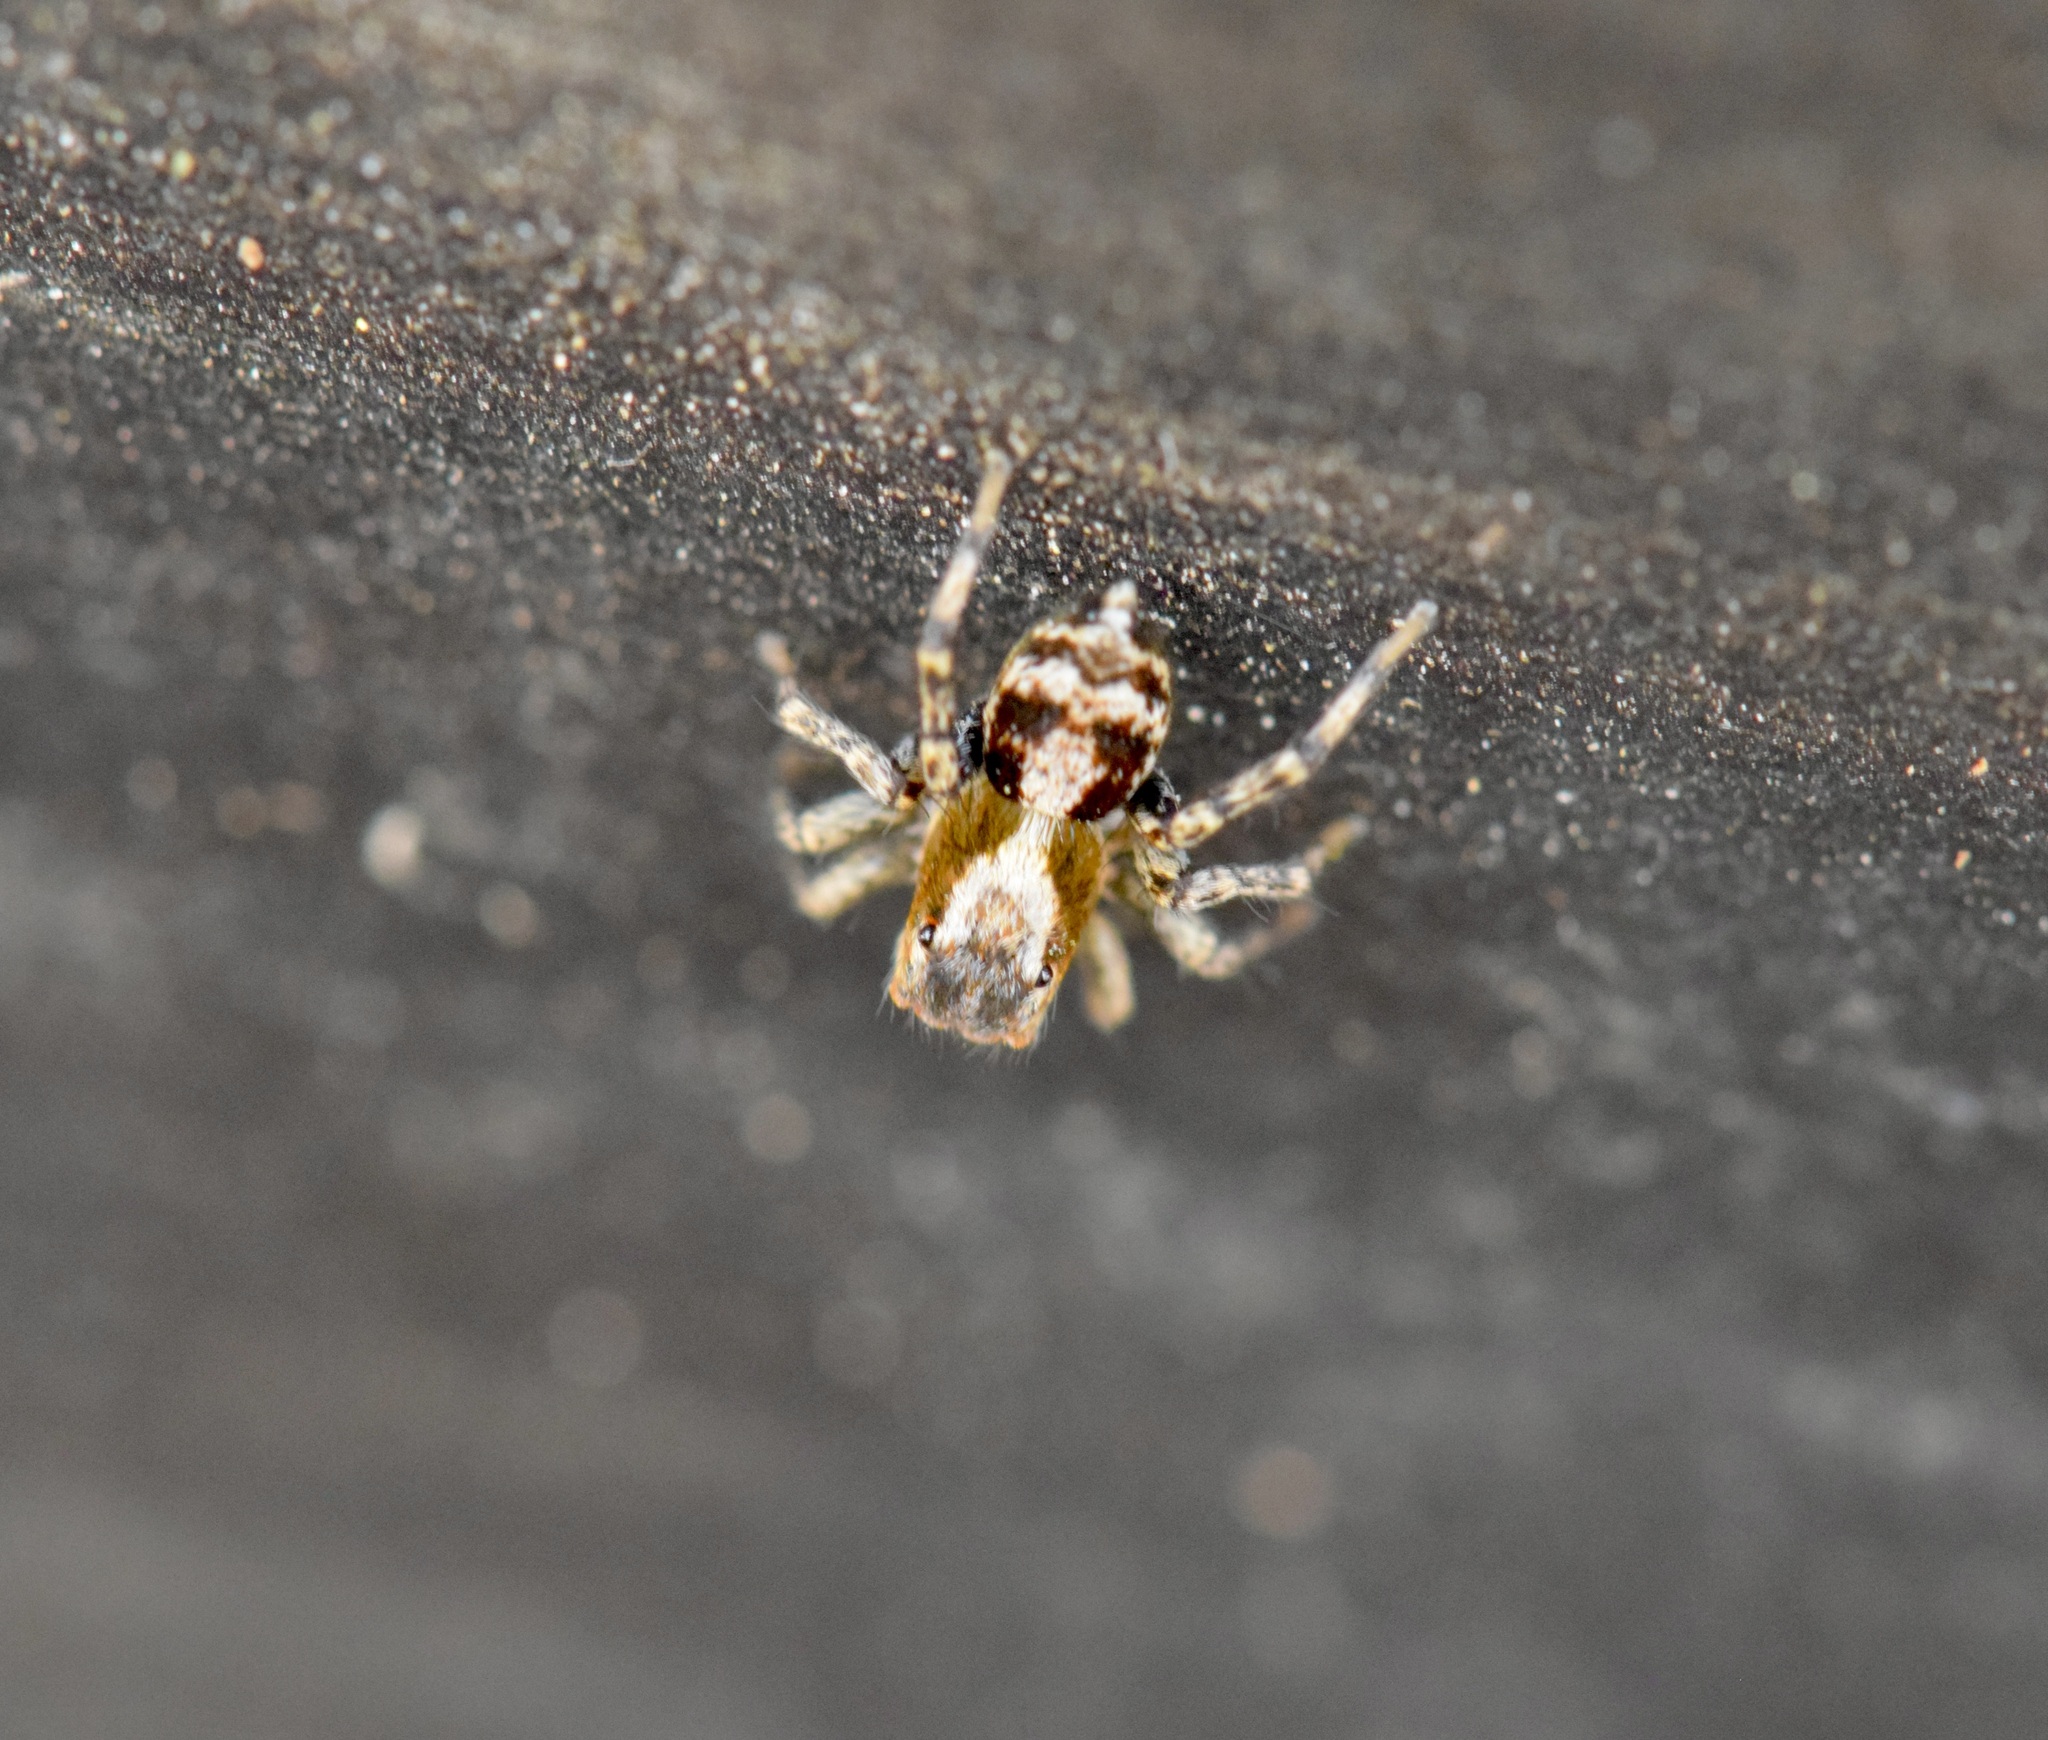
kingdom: Animalia
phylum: Arthropoda
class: Arachnida
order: Araneae
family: Salticidae
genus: Naphrys
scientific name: Naphrys pulex
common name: Flea jumping spider
